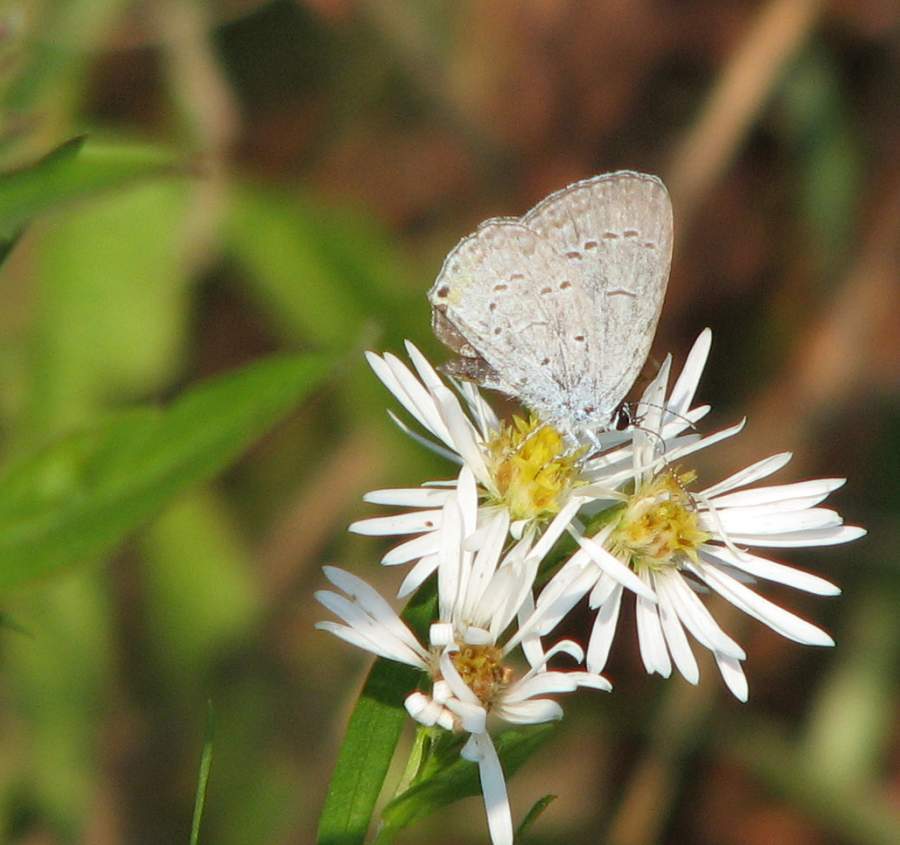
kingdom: Animalia
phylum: Arthropoda
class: Insecta
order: Lepidoptera
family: Lycaenidae
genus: Elkalyce
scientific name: Elkalyce comyntas
